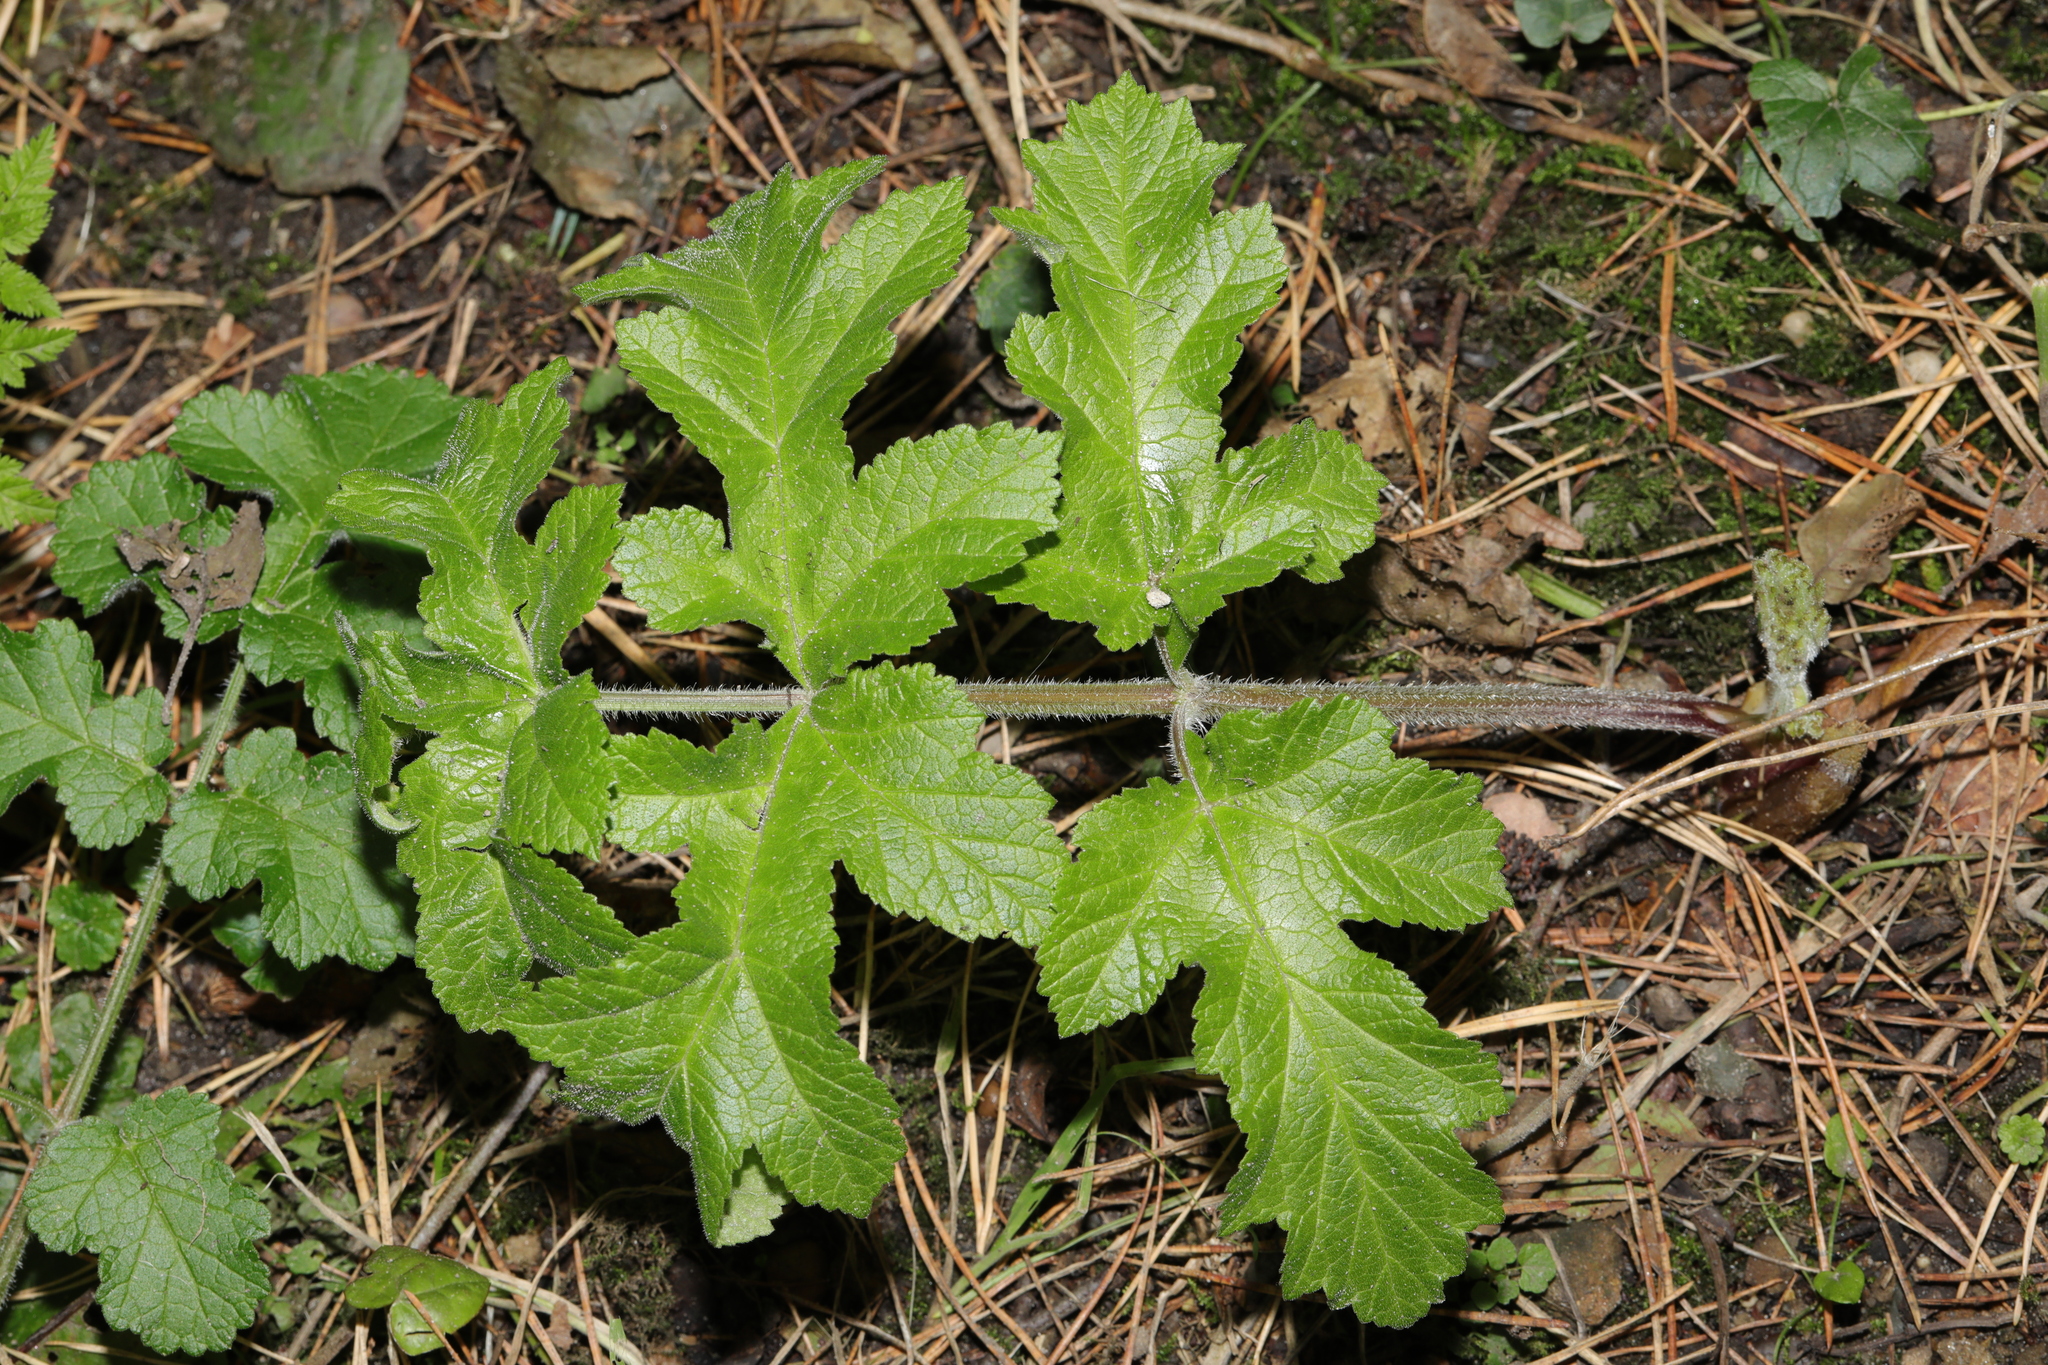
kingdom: Plantae
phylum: Tracheophyta
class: Magnoliopsida
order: Apiales
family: Apiaceae
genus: Heracleum
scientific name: Heracleum sphondylium
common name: Hogweed
